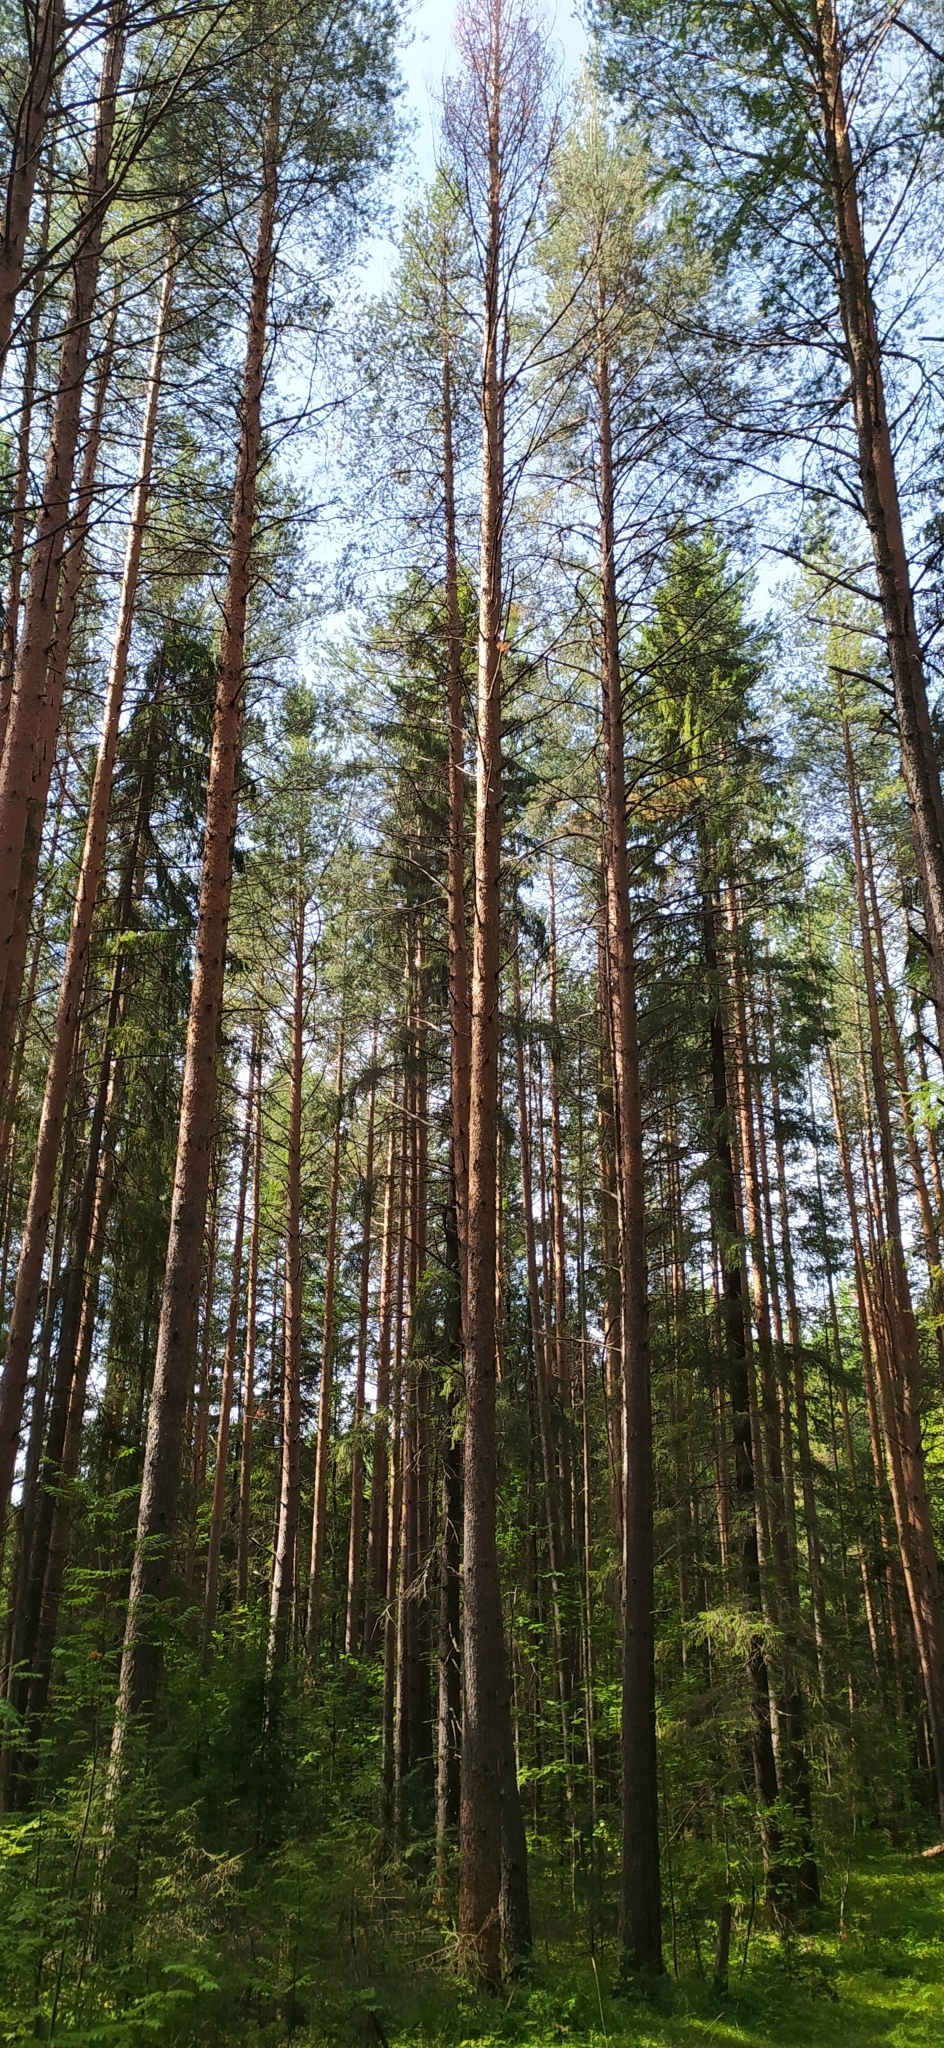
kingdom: Plantae
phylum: Tracheophyta
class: Pinopsida
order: Pinales
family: Pinaceae
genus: Pinus
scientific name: Pinus sylvestris
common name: Scots pine
